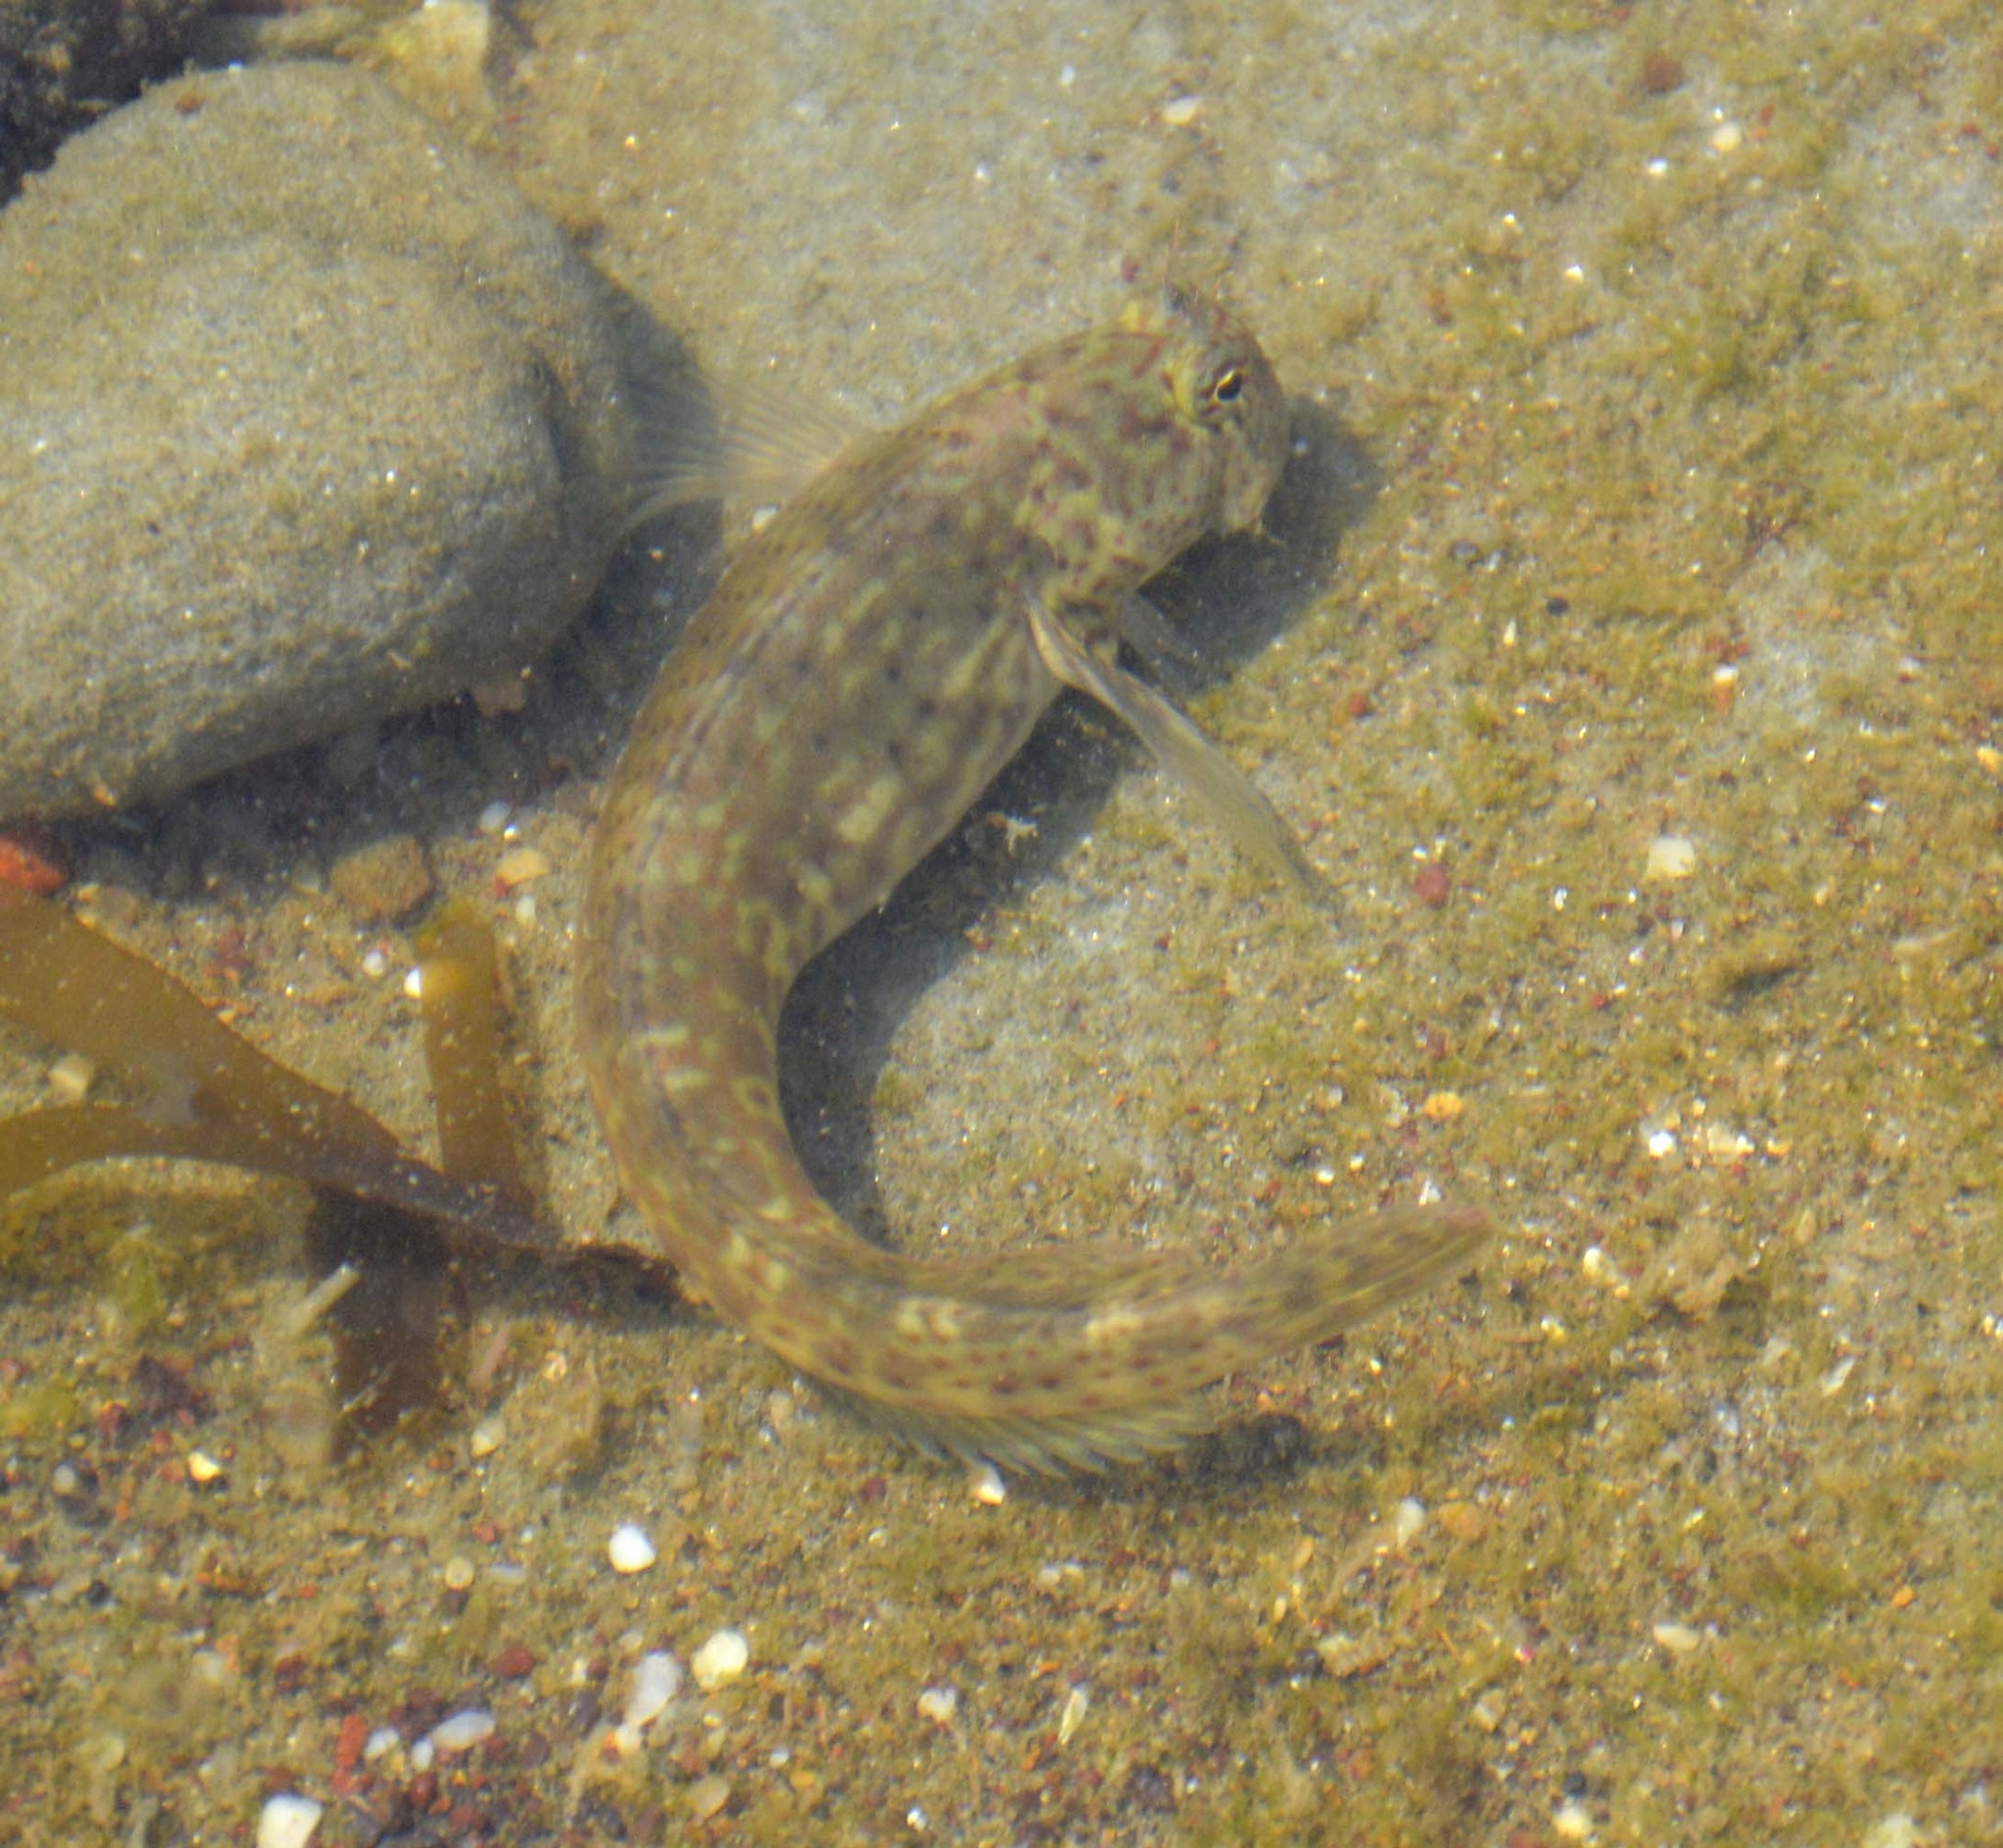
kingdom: Animalia
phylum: Chordata
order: Perciformes
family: Blenniidae
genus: Istiblennius
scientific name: Istiblennius dussumieri
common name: Dussumier's rockskipper
